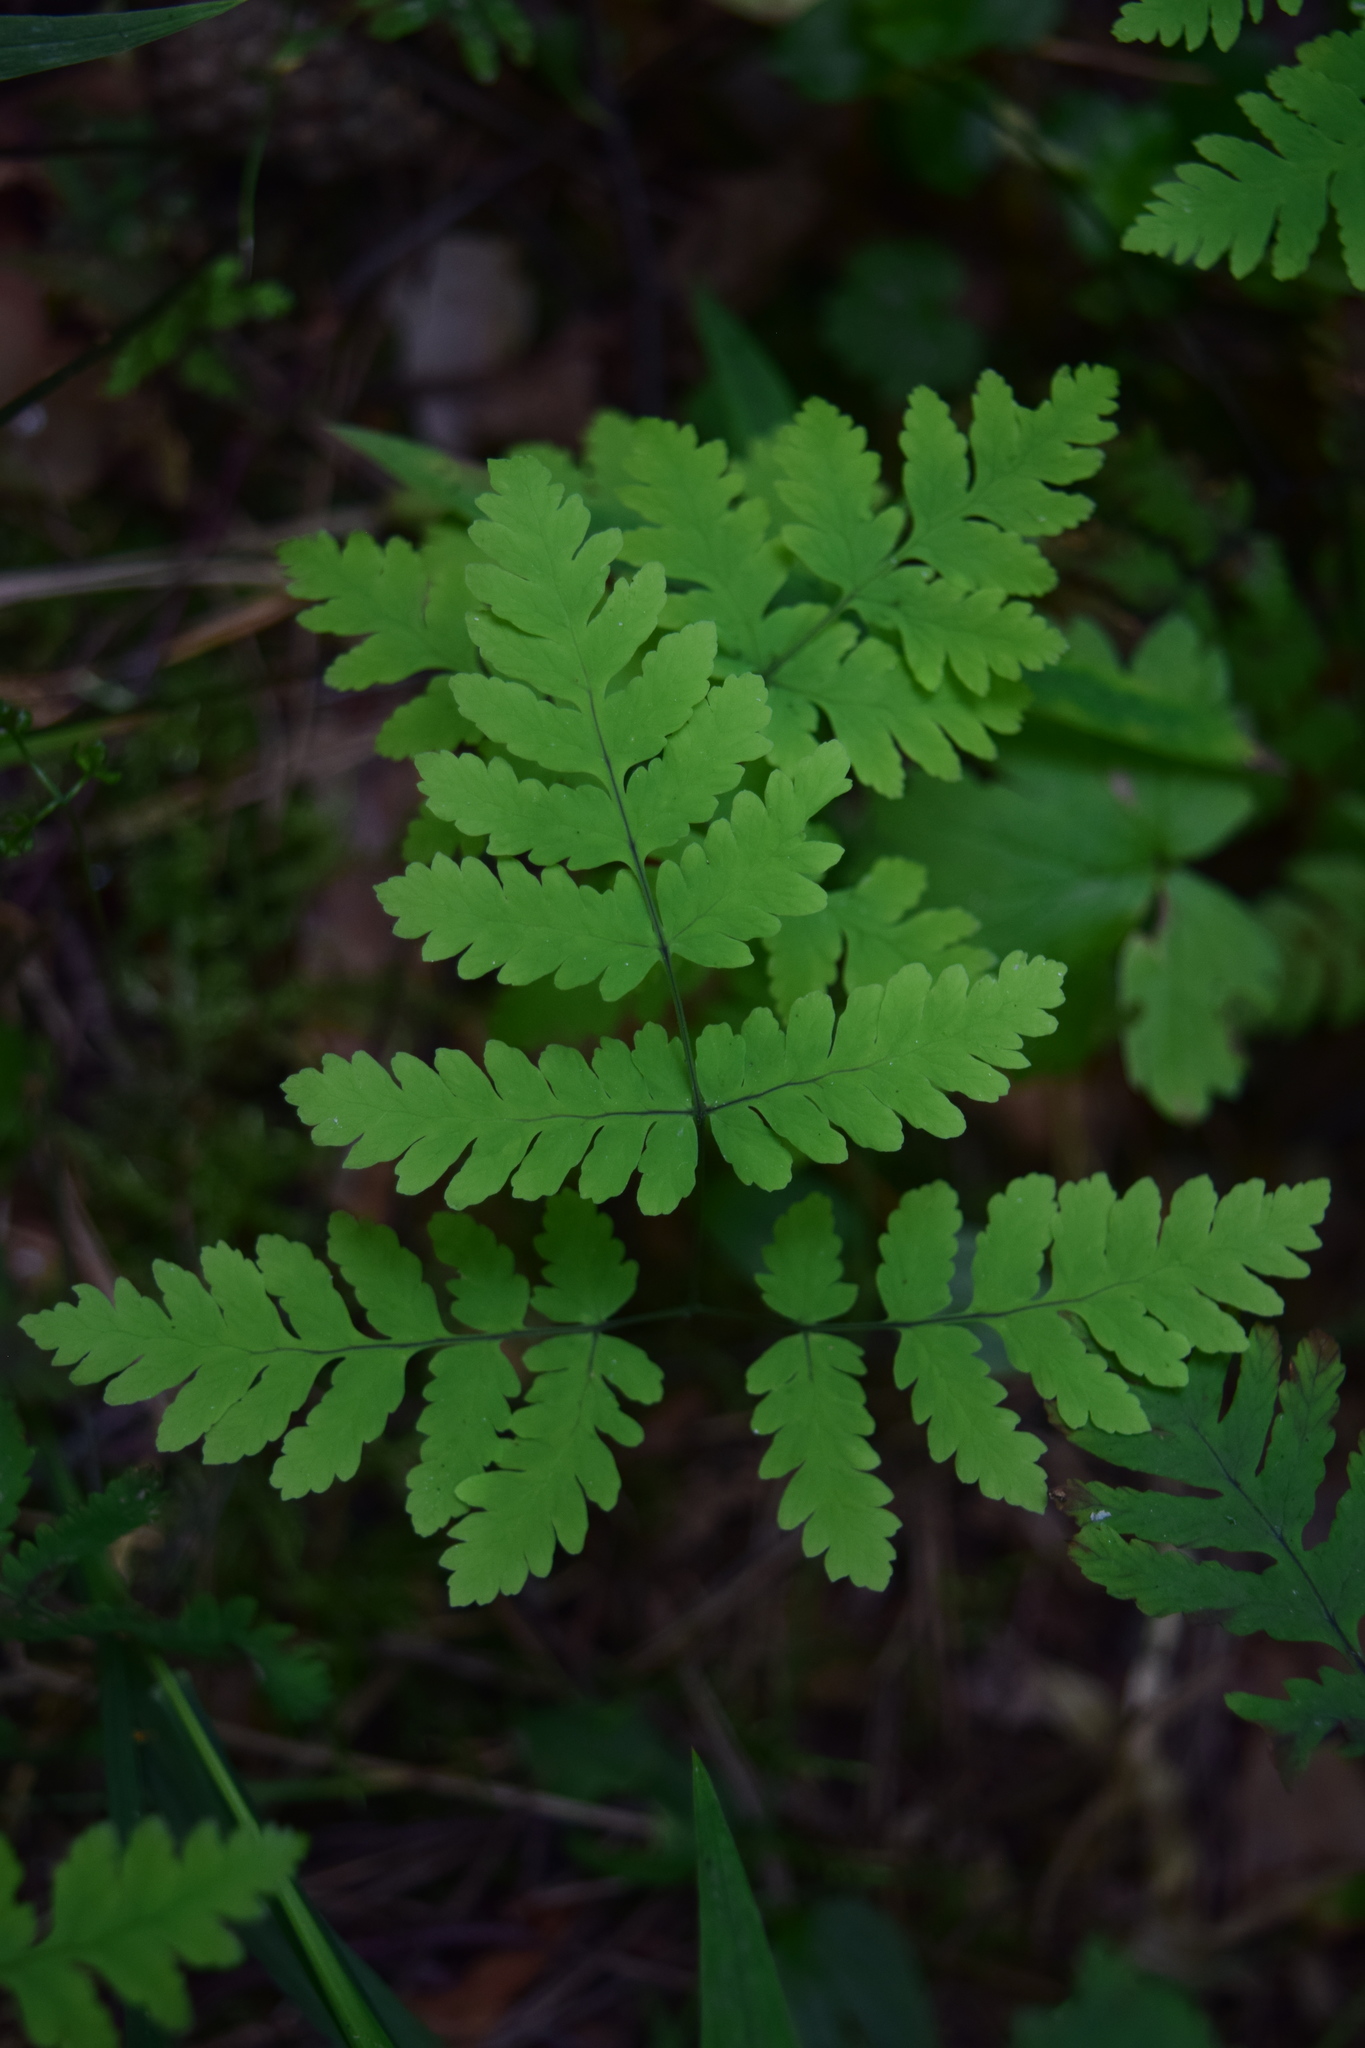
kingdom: Plantae
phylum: Tracheophyta
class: Polypodiopsida
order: Polypodiales
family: Cystopteridaceae
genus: Gymnocarpium
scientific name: Gymnocarpium dryopteris
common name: Oak fern
